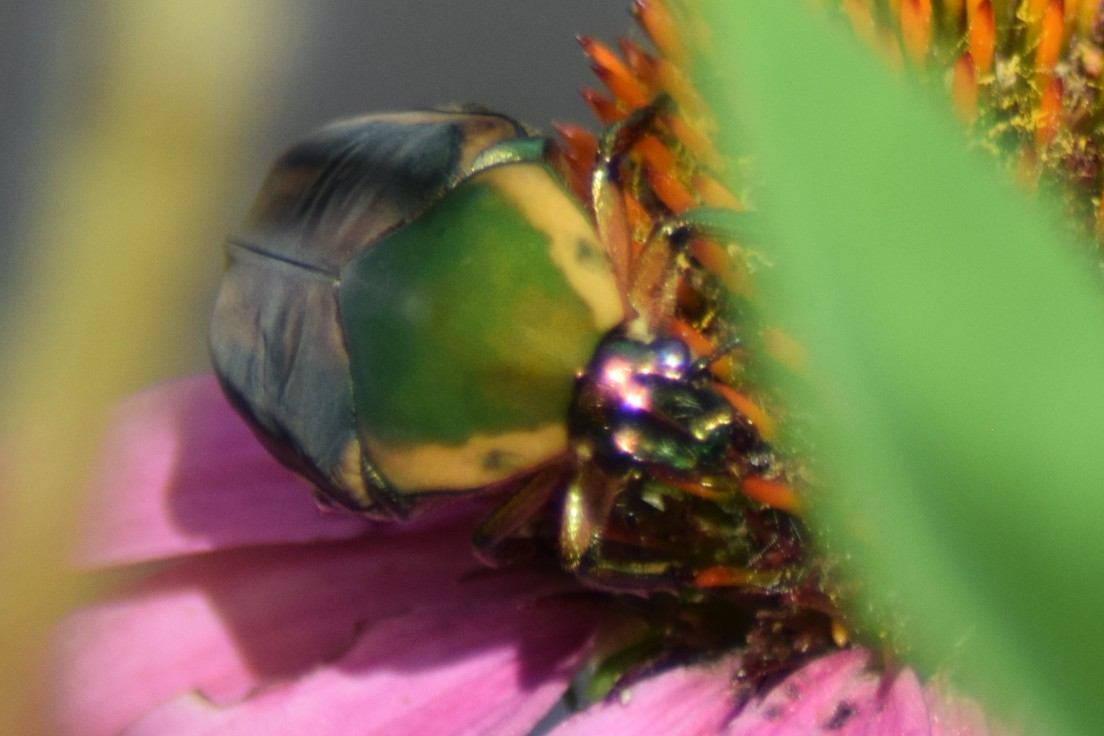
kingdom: Animalia
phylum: Arthropoda
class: Insecta
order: Coleoptera
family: Scarabaeidae
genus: Cotinis
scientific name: Cotinis nitida
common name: Common green june beetle
